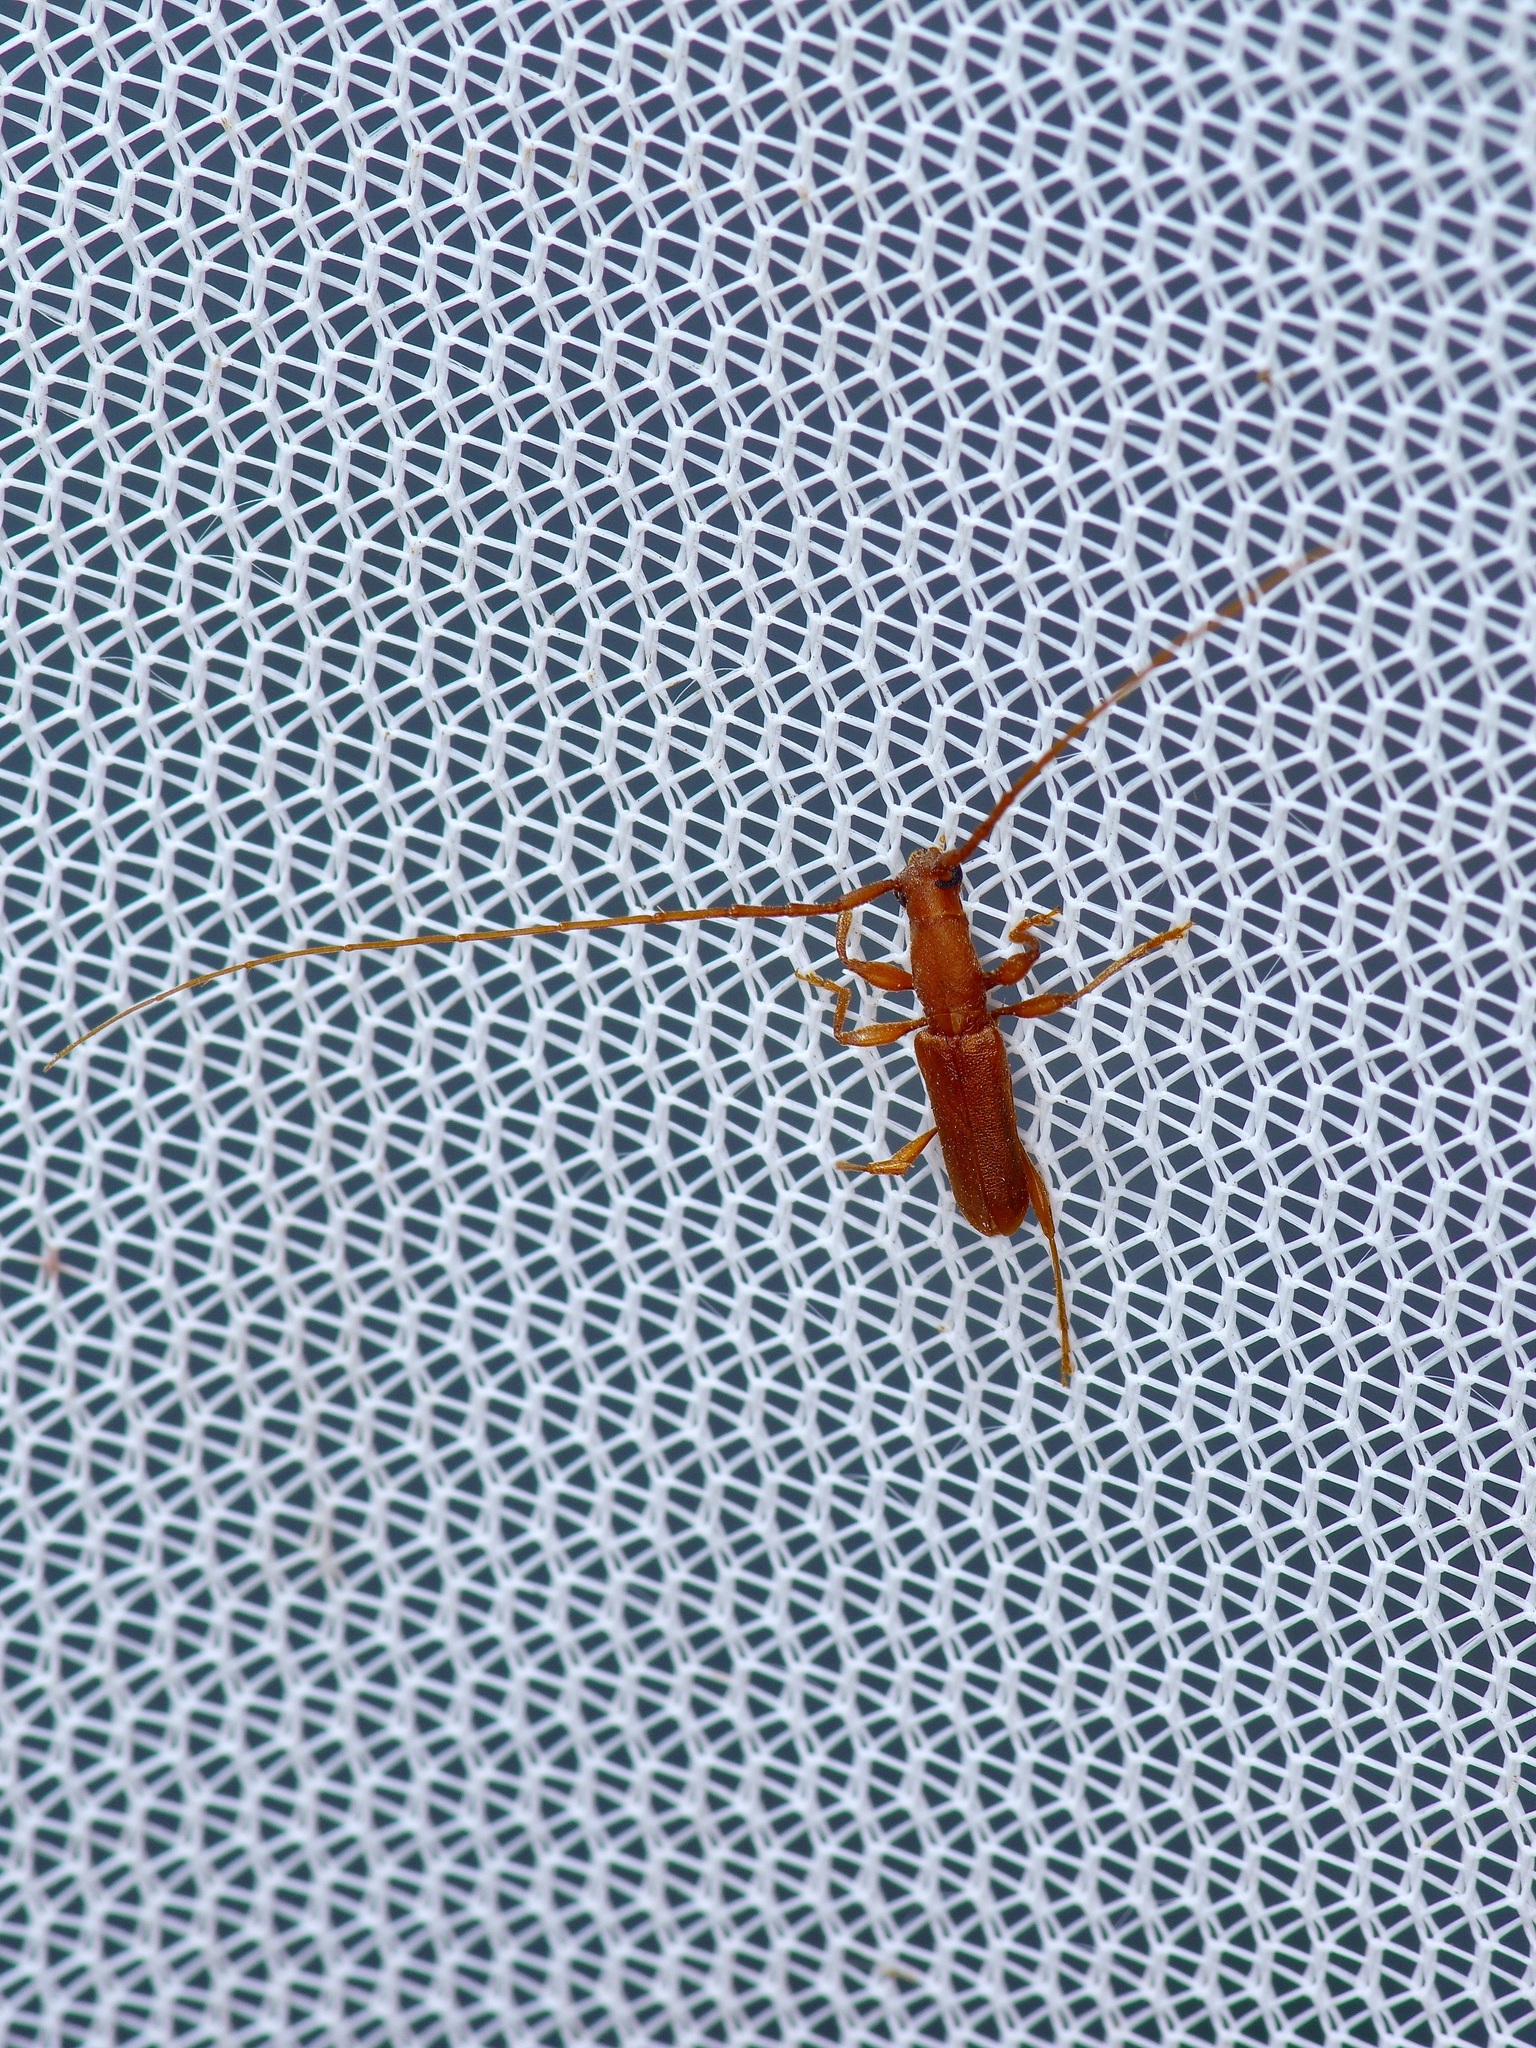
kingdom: Animalia
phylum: Arthropoda
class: Insecta
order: Coleoptera
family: Cerambycidae
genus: Hypexilis
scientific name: Hypexilis pallida
